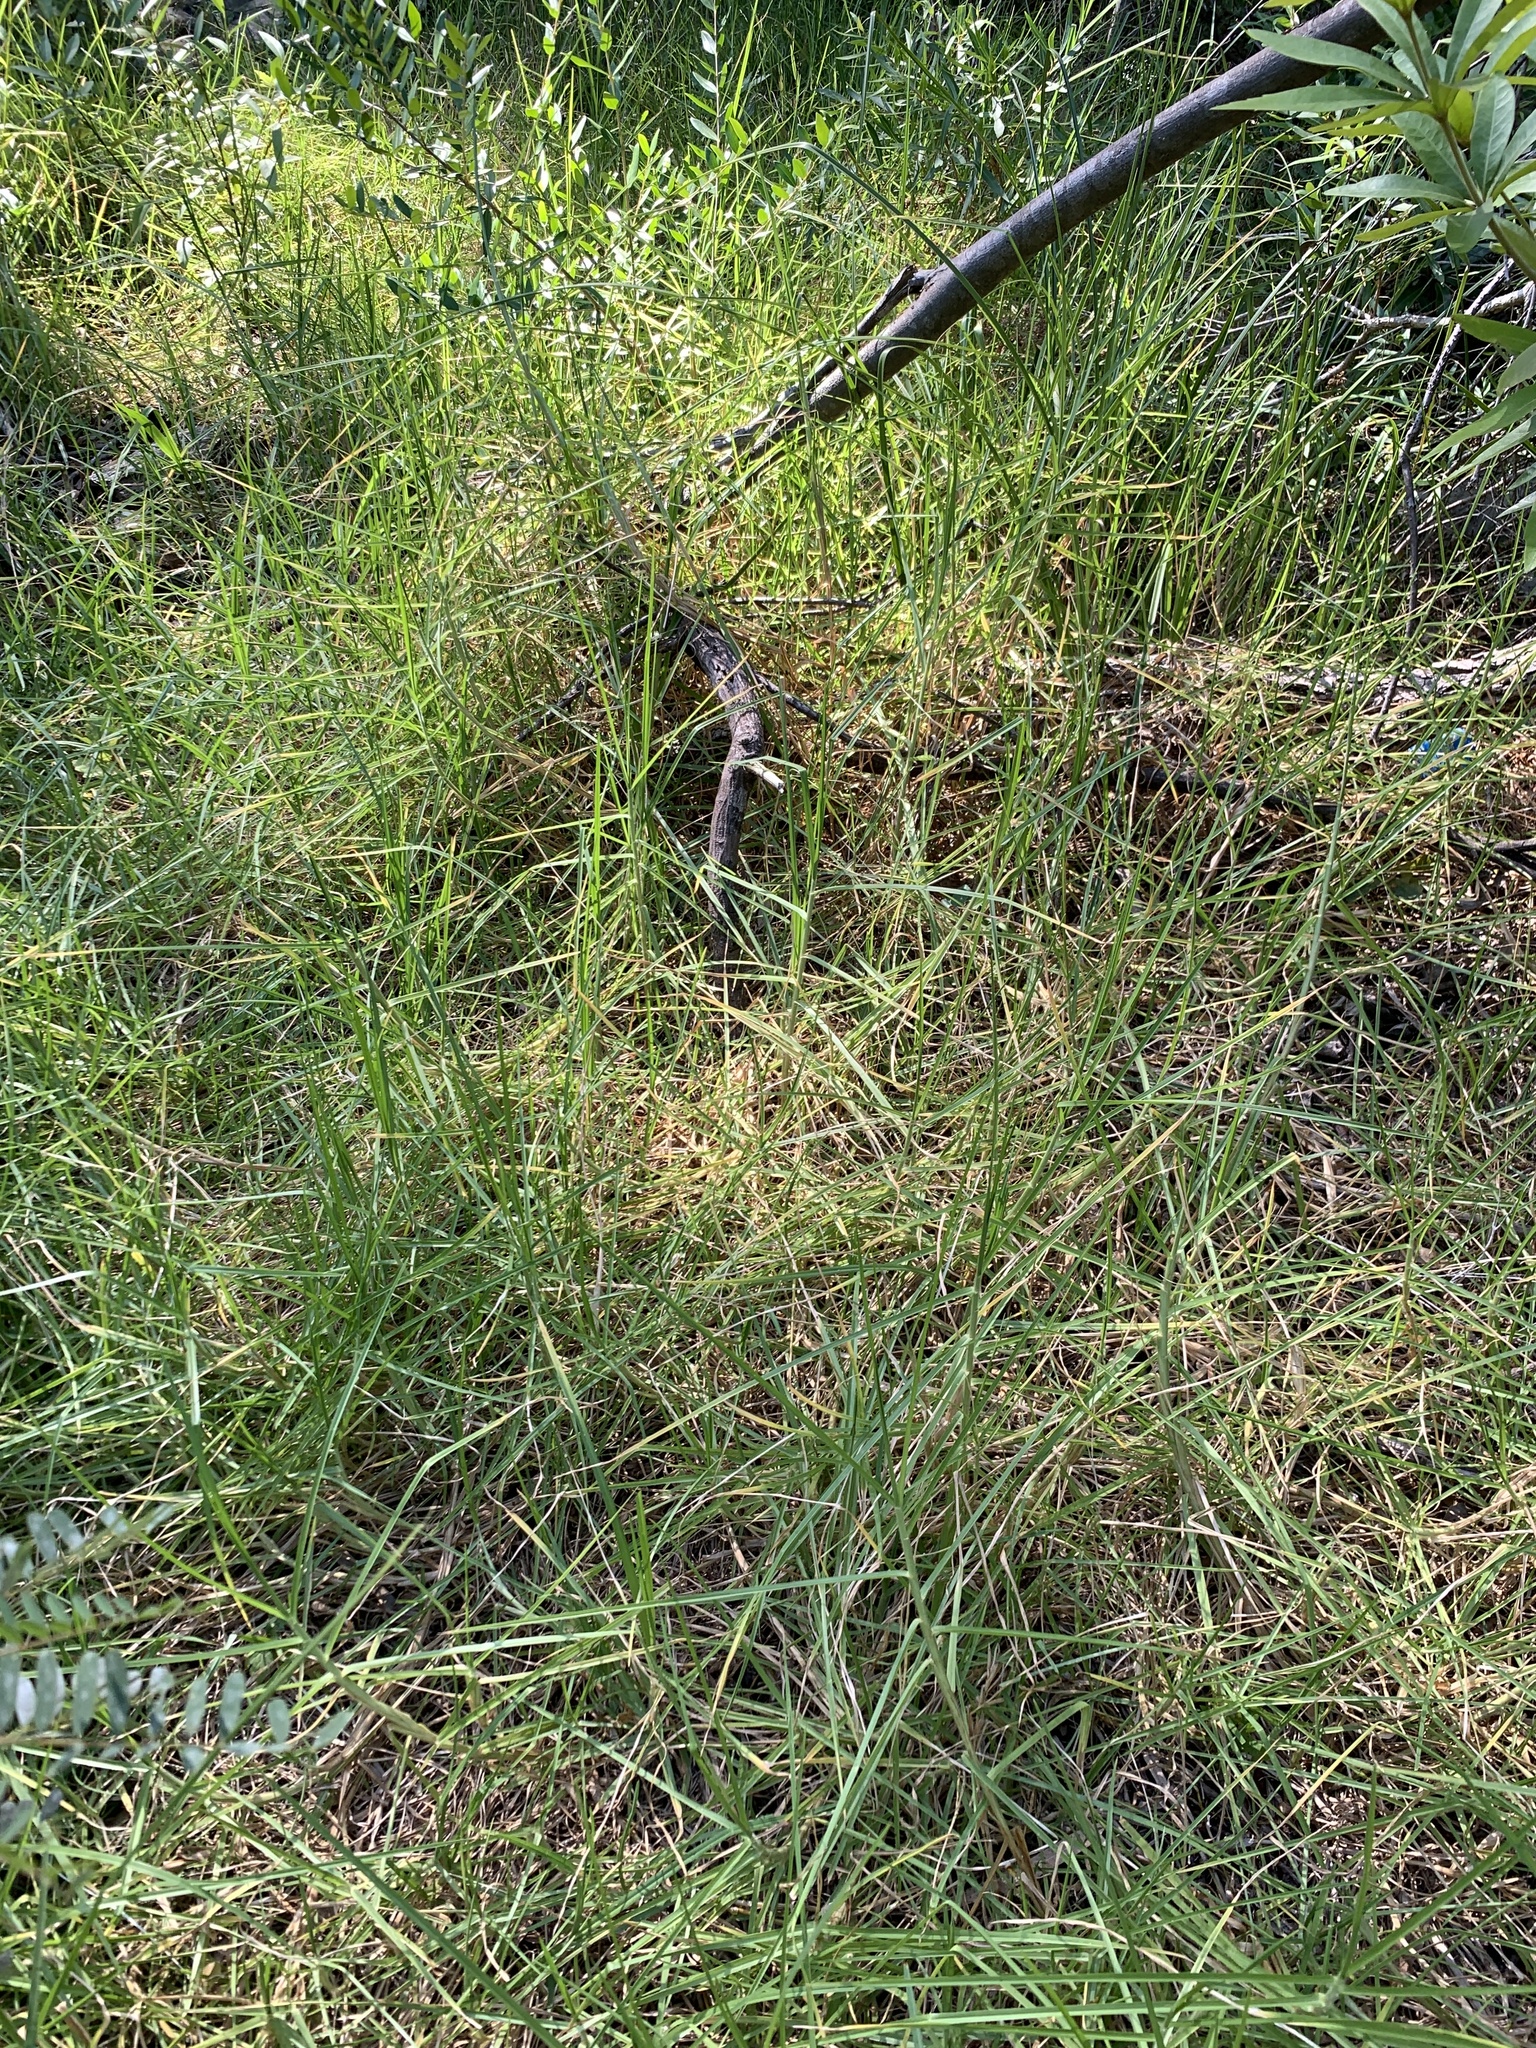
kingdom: Plantae
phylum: Tracheophyta
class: Liliopsida
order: Poales
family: Poaceae
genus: Cenchrus
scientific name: Cenchrus clandestinus
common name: Kikuyugrass
